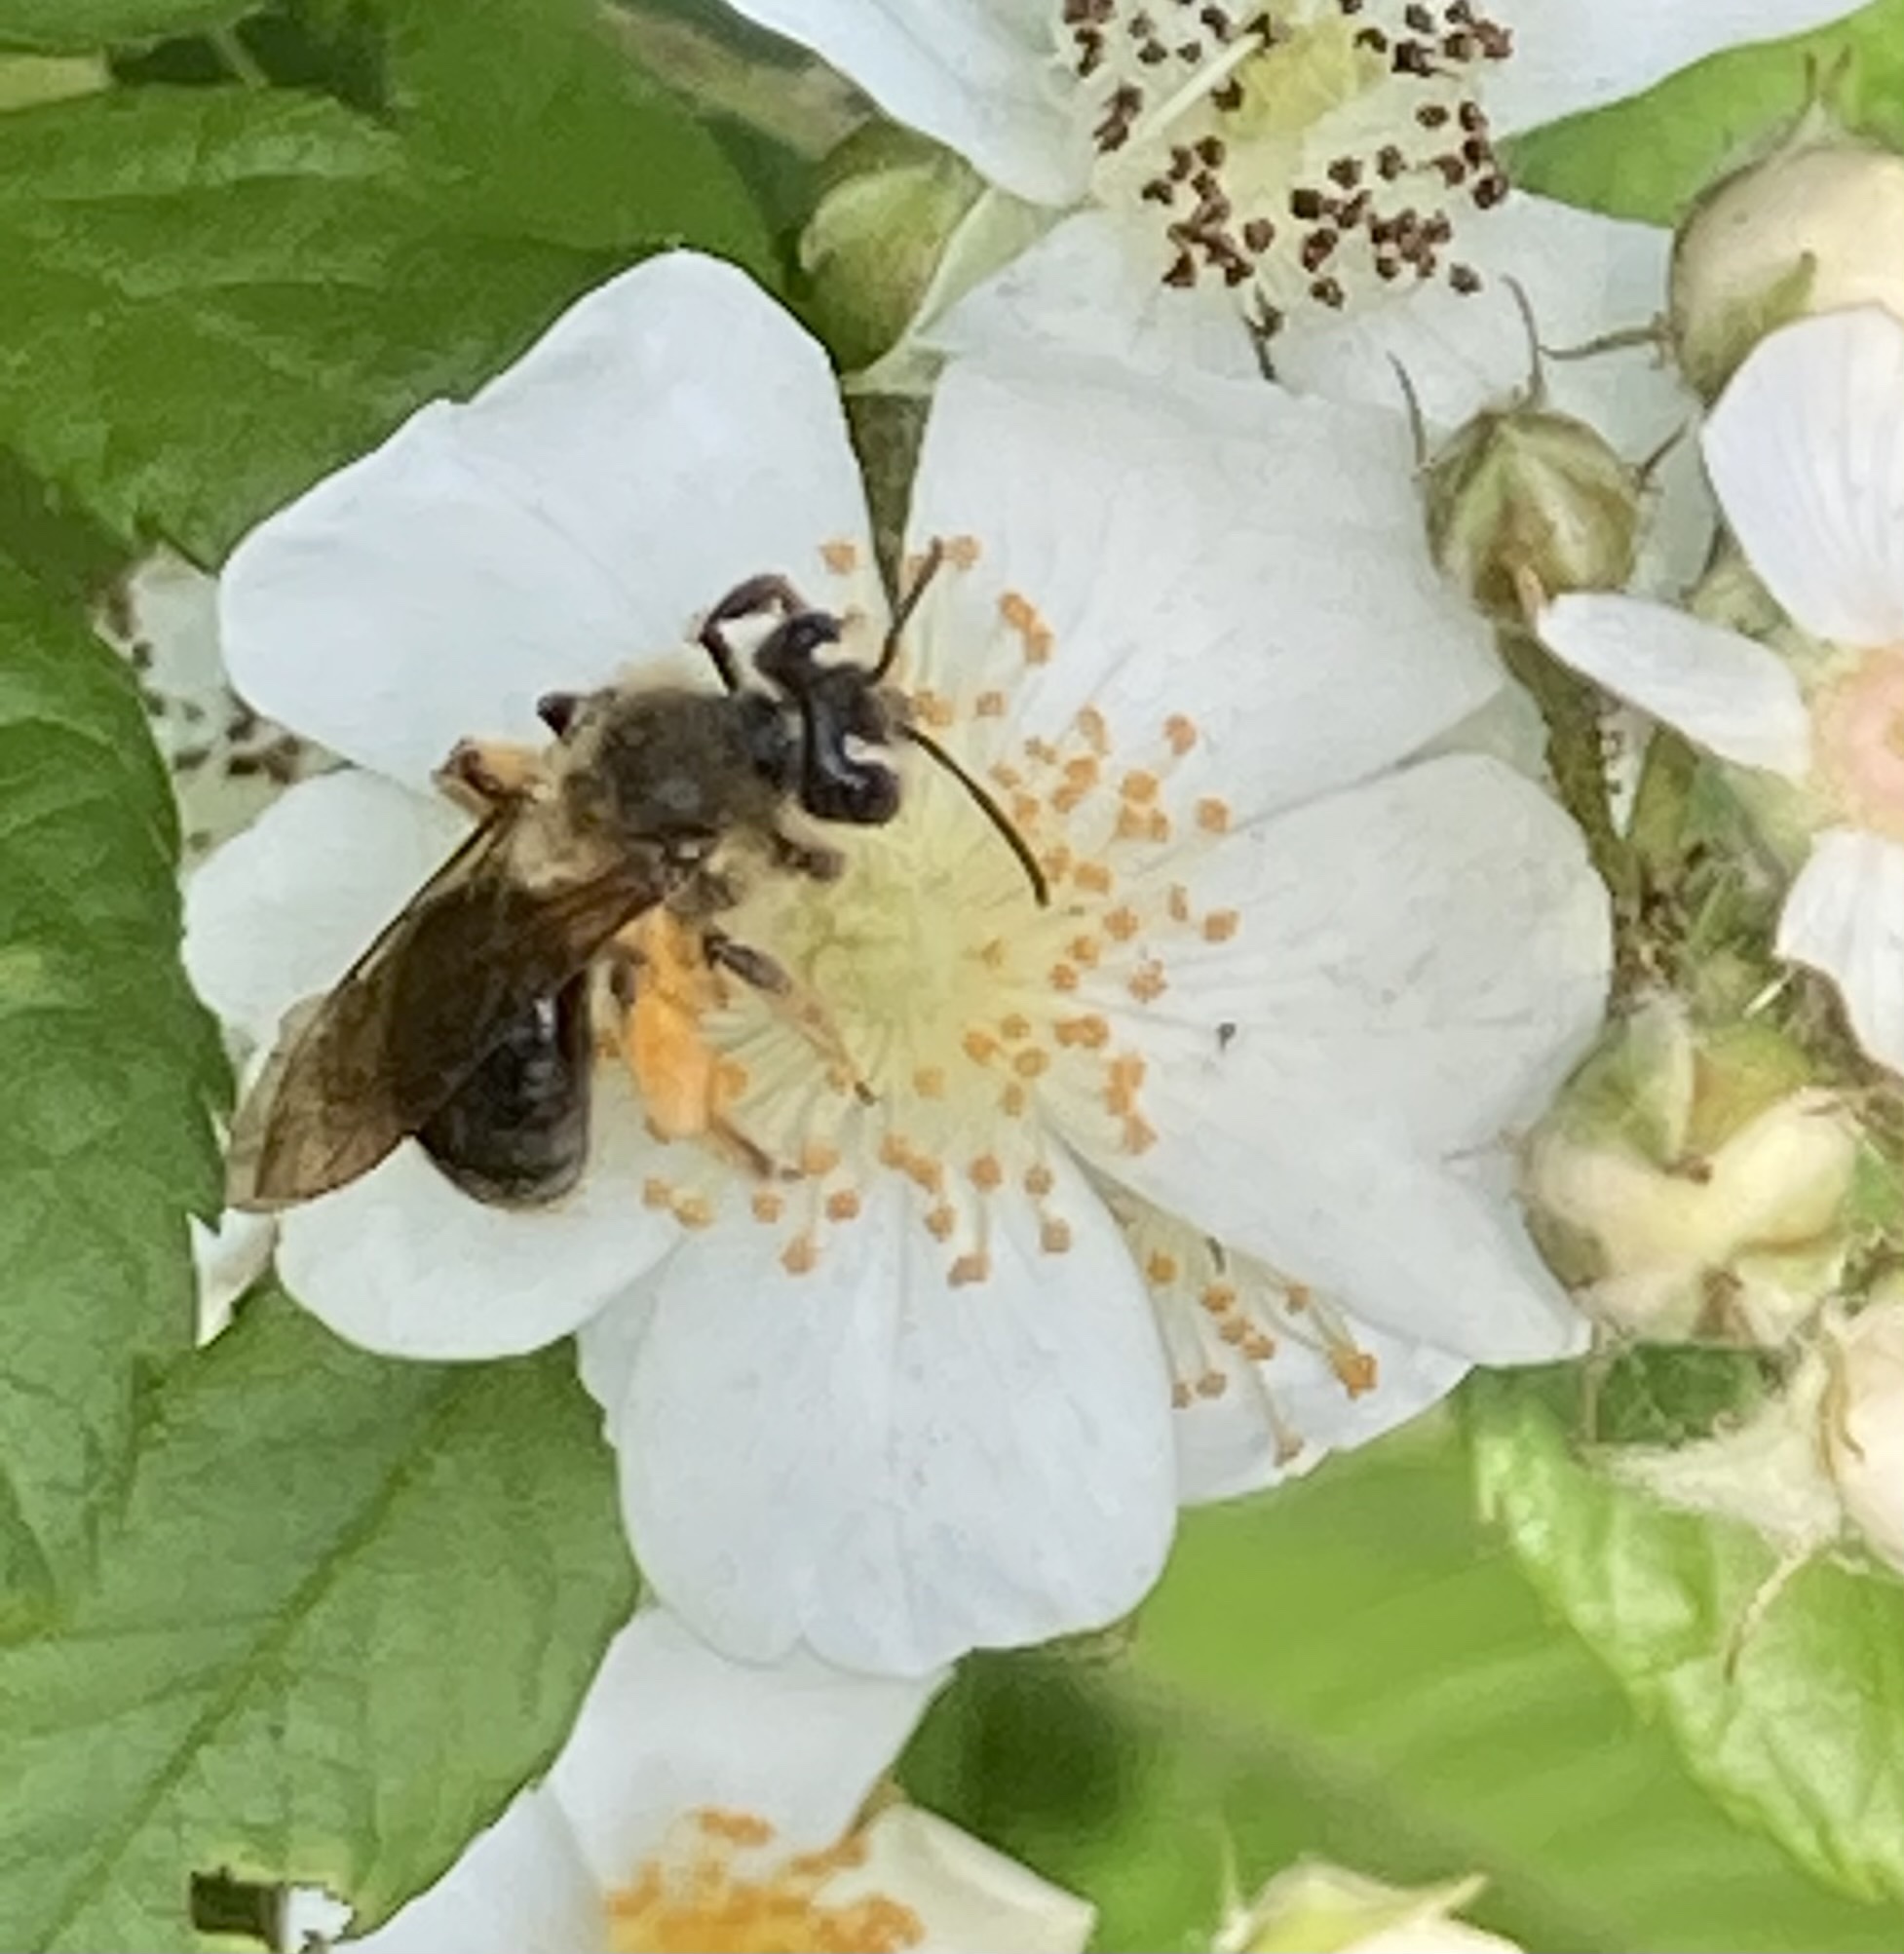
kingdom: Animalia
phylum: Arthropoda
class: Insecta
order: Hymenoptera
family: Andrenidae
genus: Andrena
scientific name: Andrena
